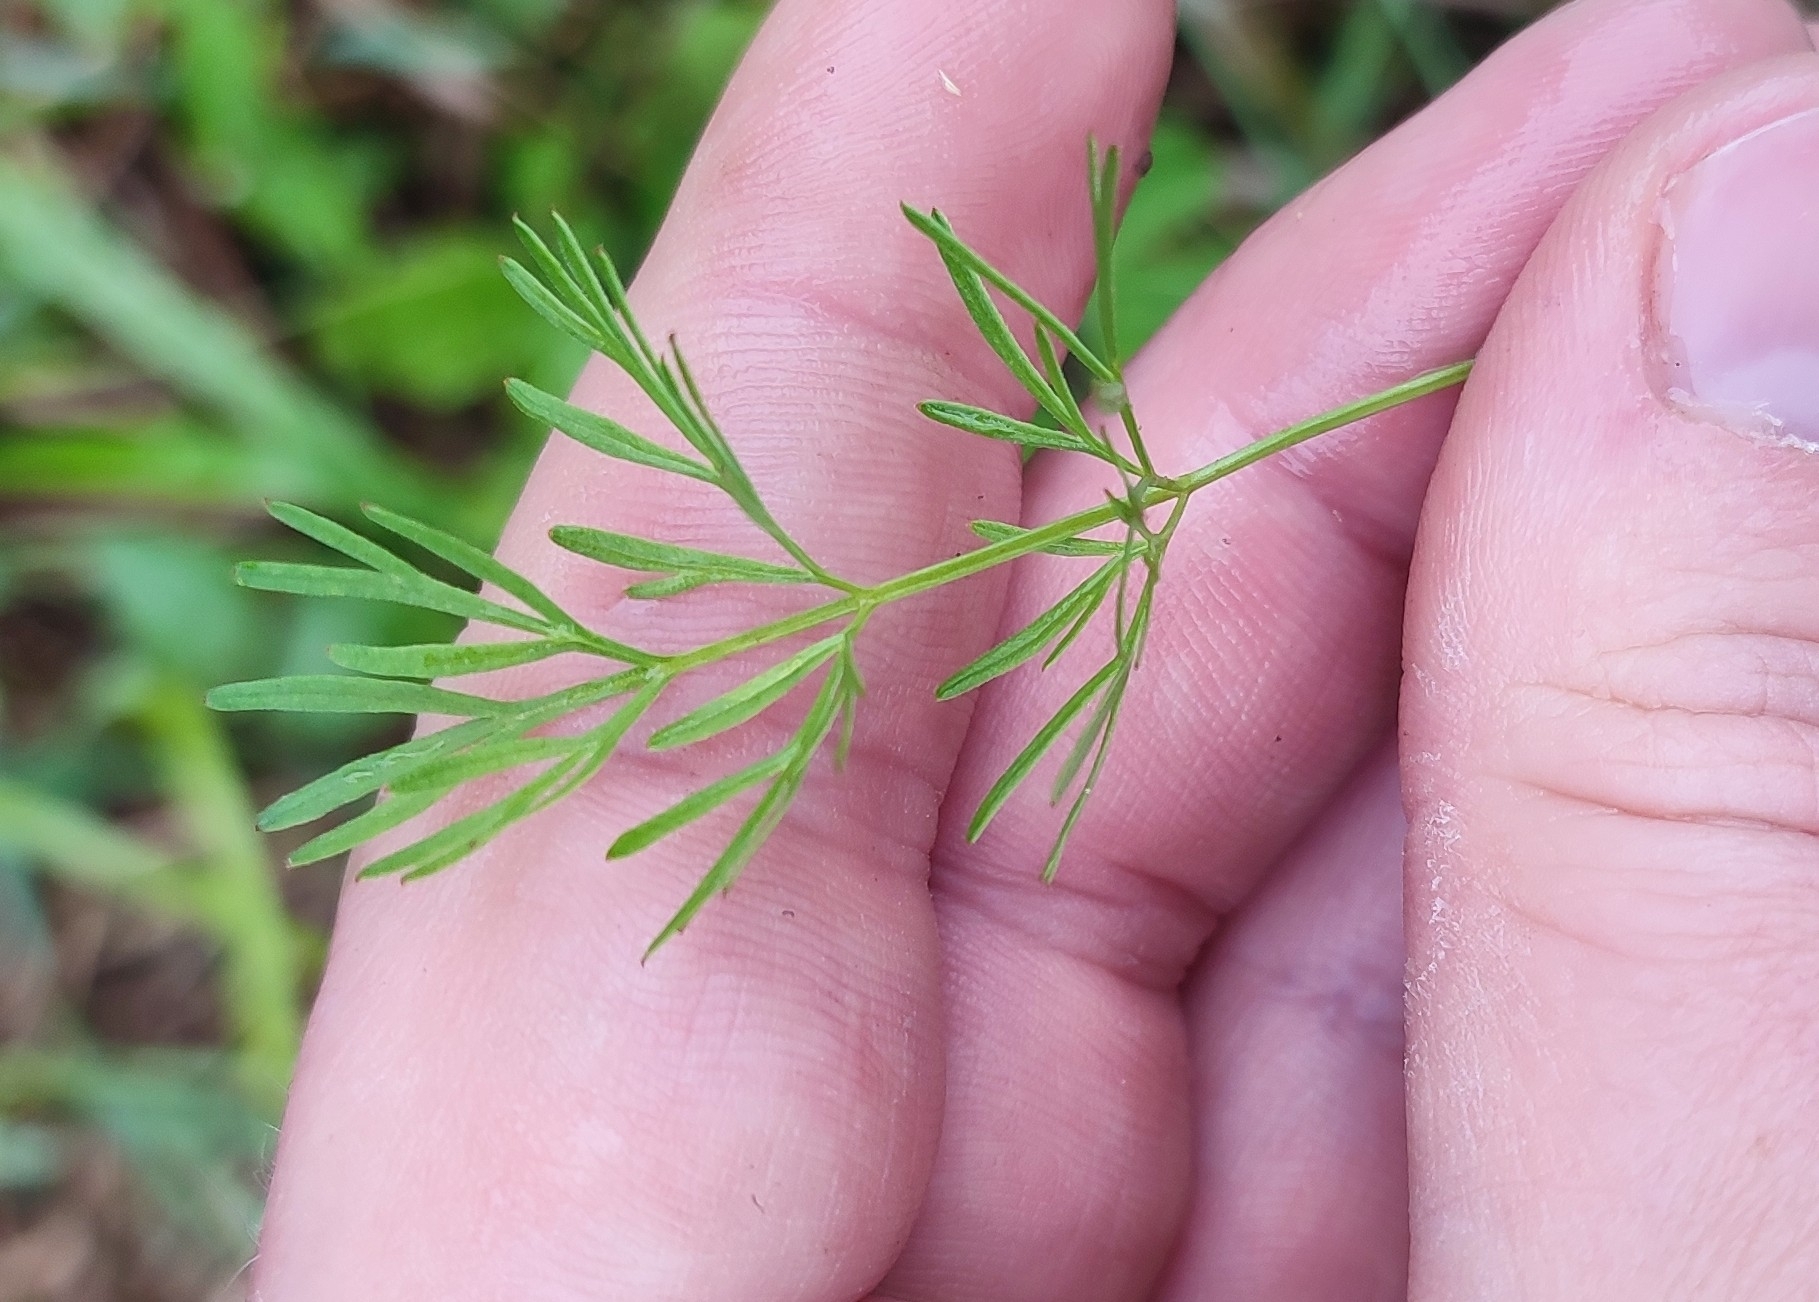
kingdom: Plantae
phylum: Tracheophyta
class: Magnoliopsida
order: Apiales
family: Apiaceae
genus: Kadenia
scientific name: Kadenia dubia
